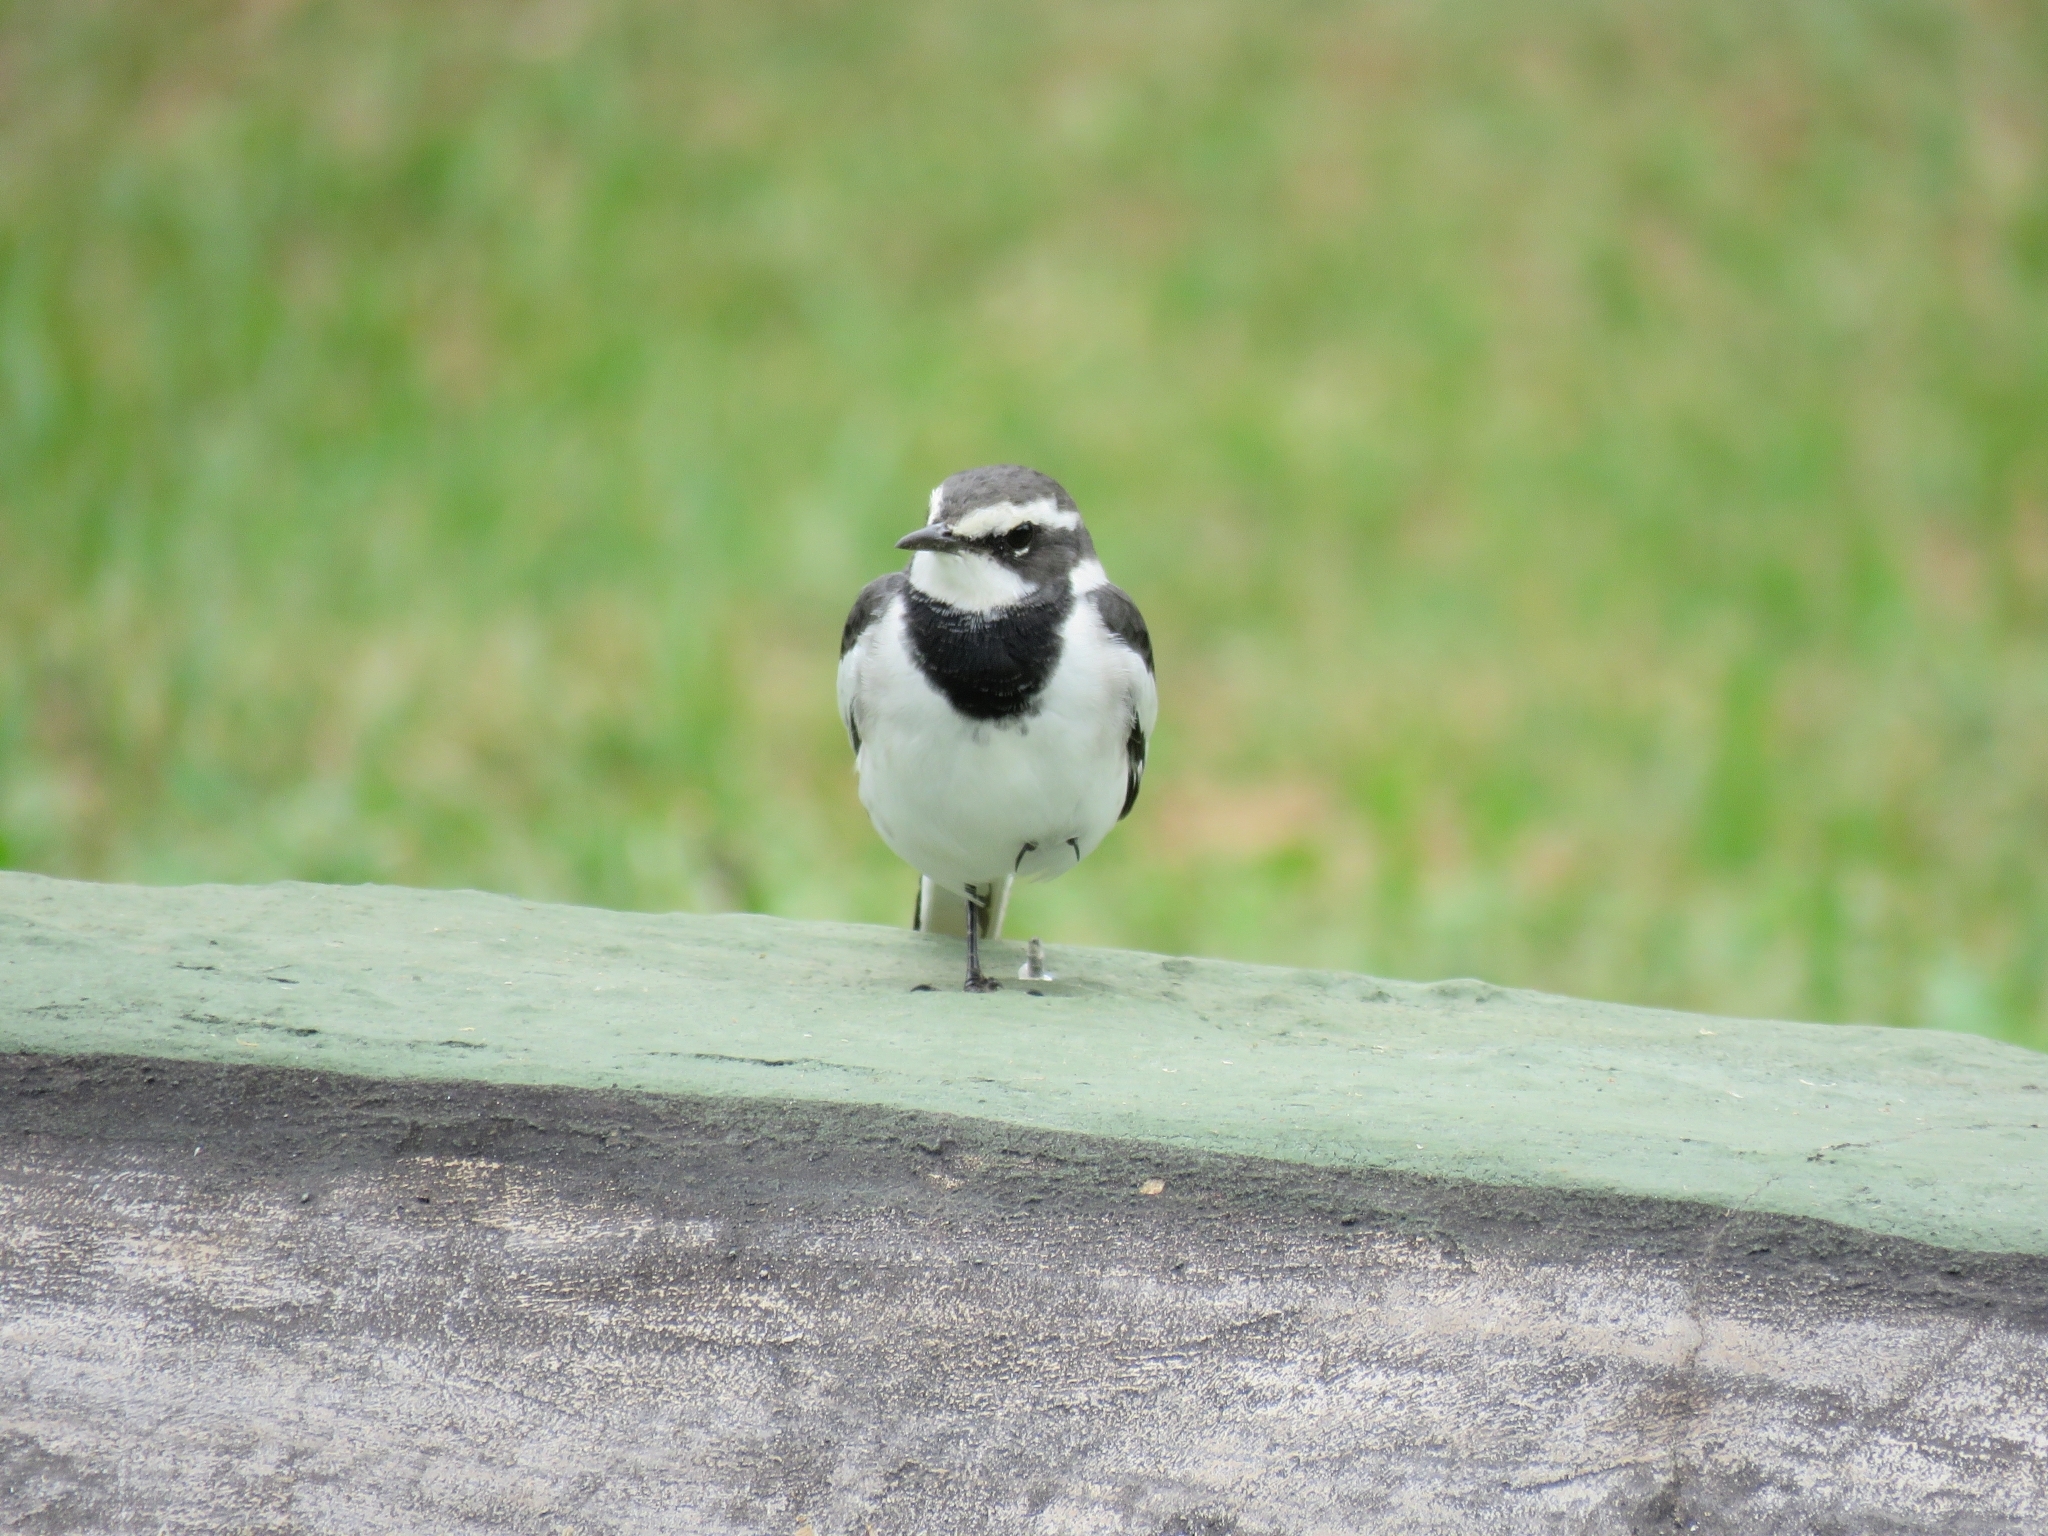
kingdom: Animalia
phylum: Chordata
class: Aves
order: Passeriformes
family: Motacillidae
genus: Motacilla
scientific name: Motacilla aguimp
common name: African pied wagtail
